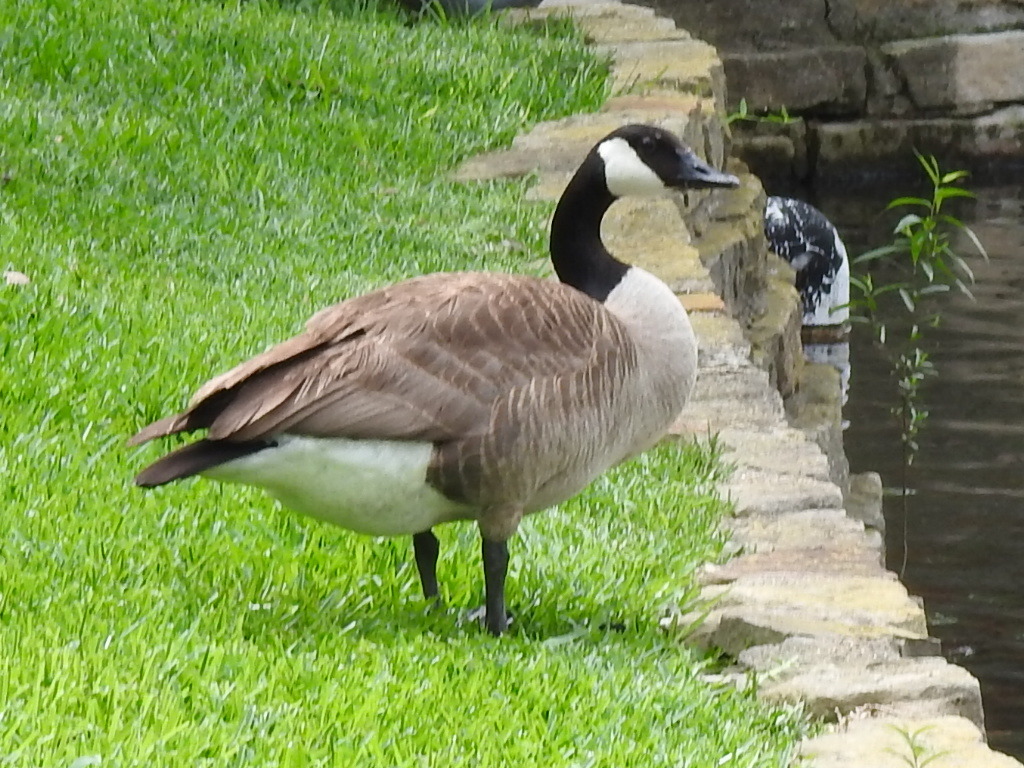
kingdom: Animalia
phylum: Chordata
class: Aves
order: Anseriformes
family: Anatidae
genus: Branta
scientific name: Branta canadensis
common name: Canada goose
